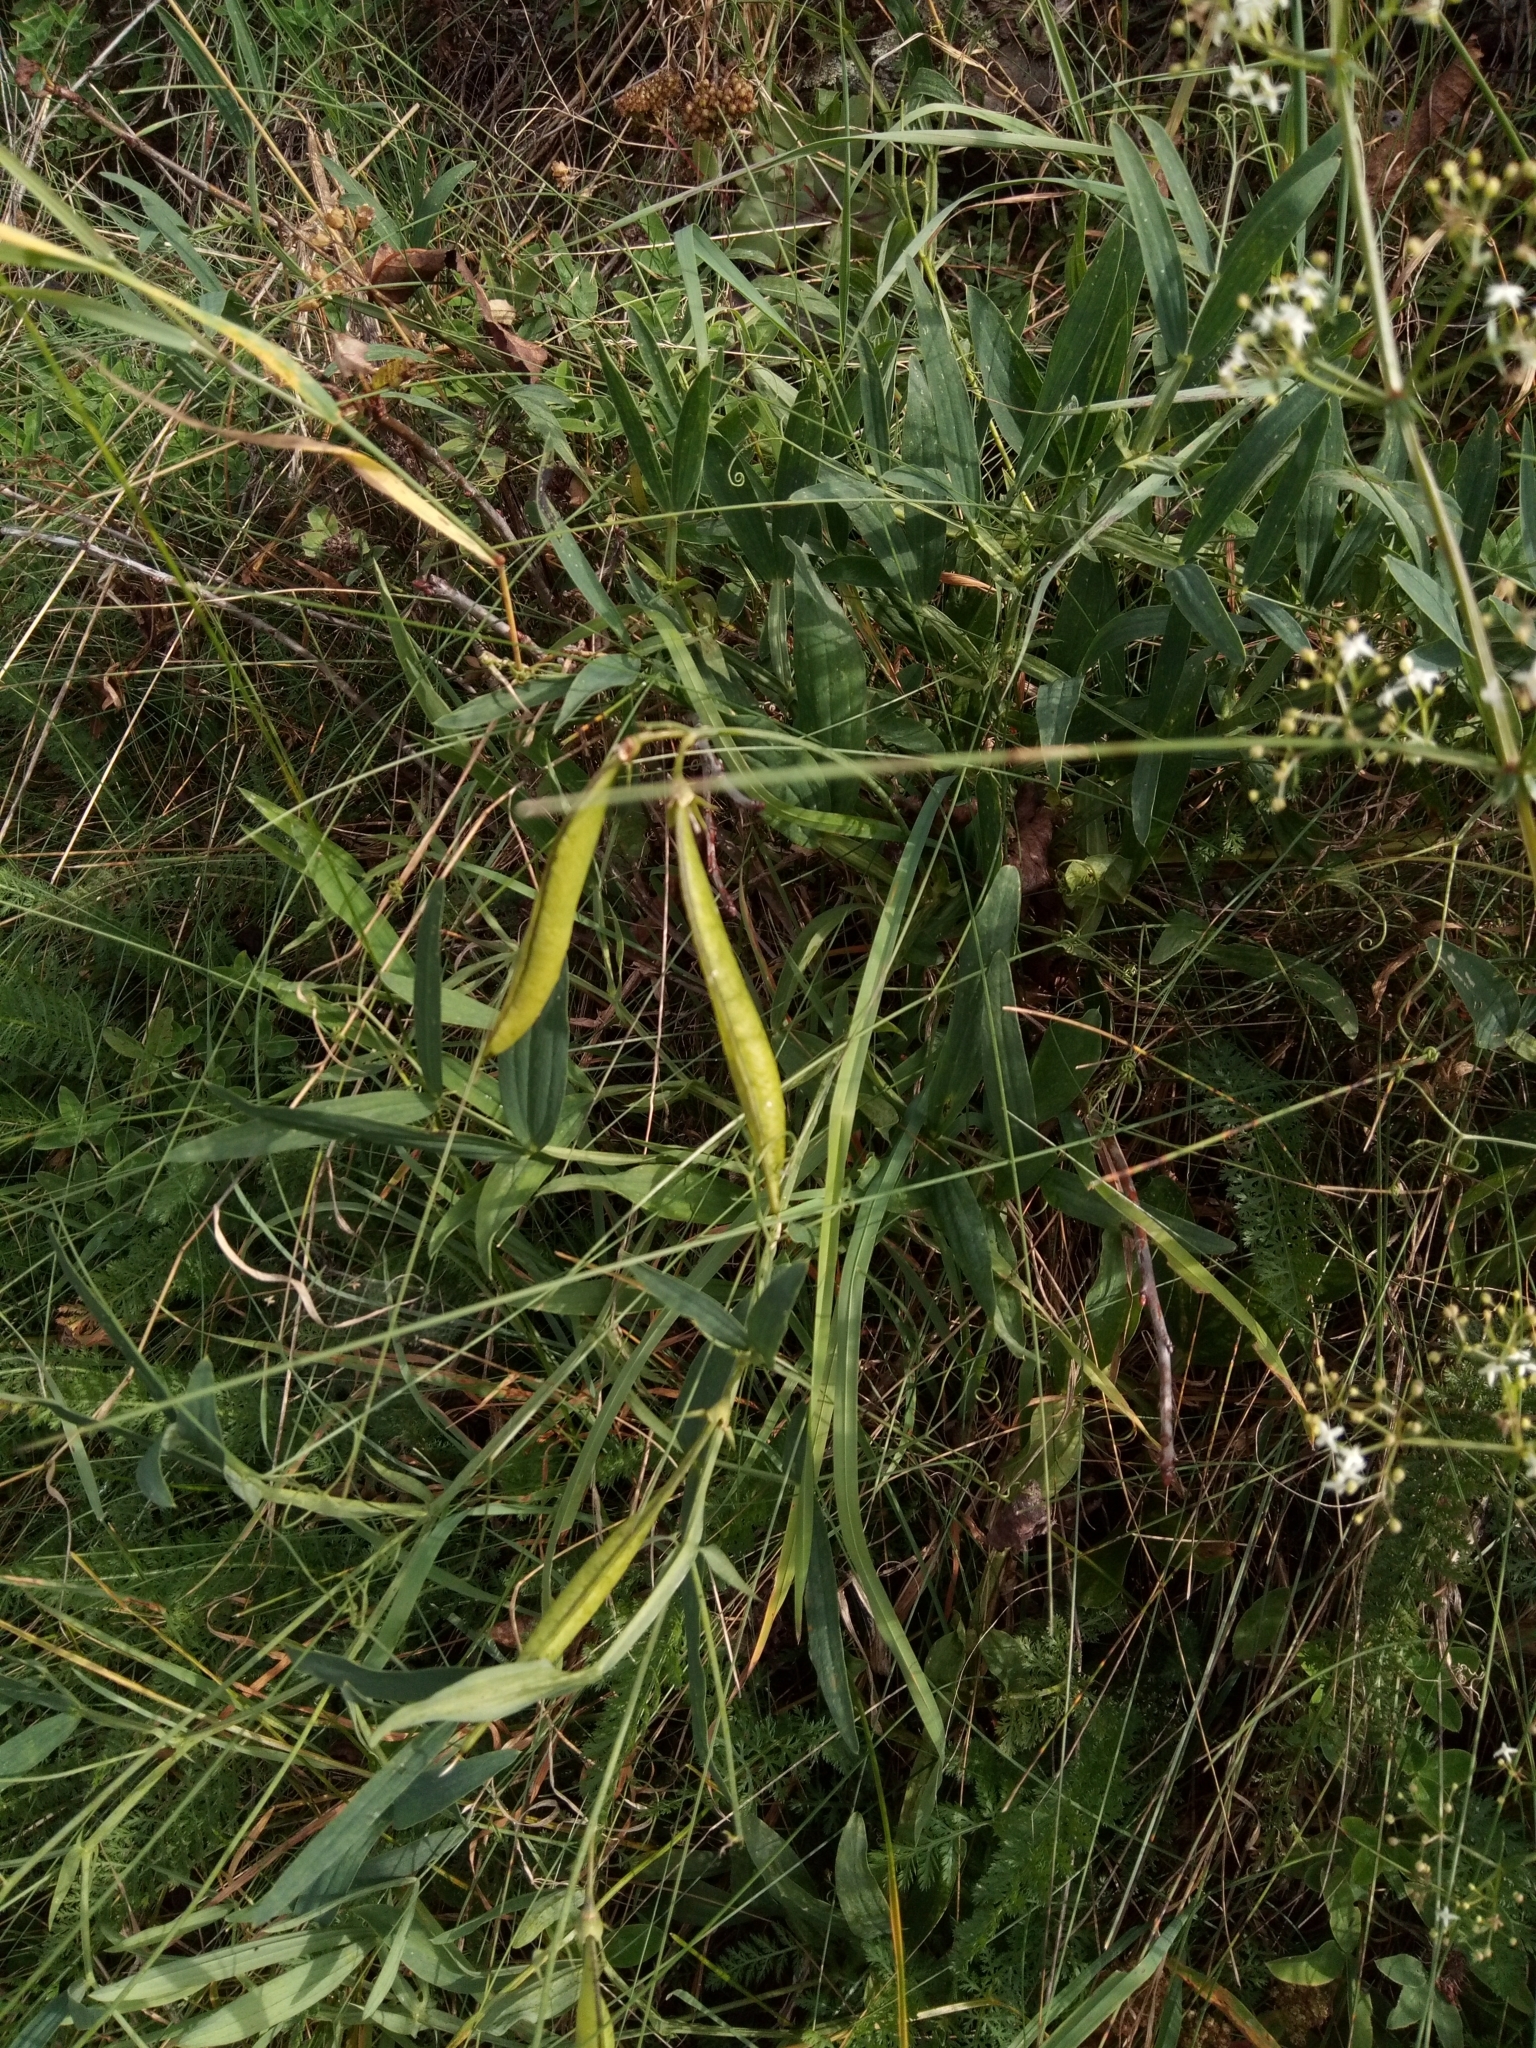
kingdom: Plantae
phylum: Tracheophyta
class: Magnoliopsida
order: Fabales
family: Fabaceae
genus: Lathyrus
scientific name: Lathyrus latifolius
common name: Perennial pea
